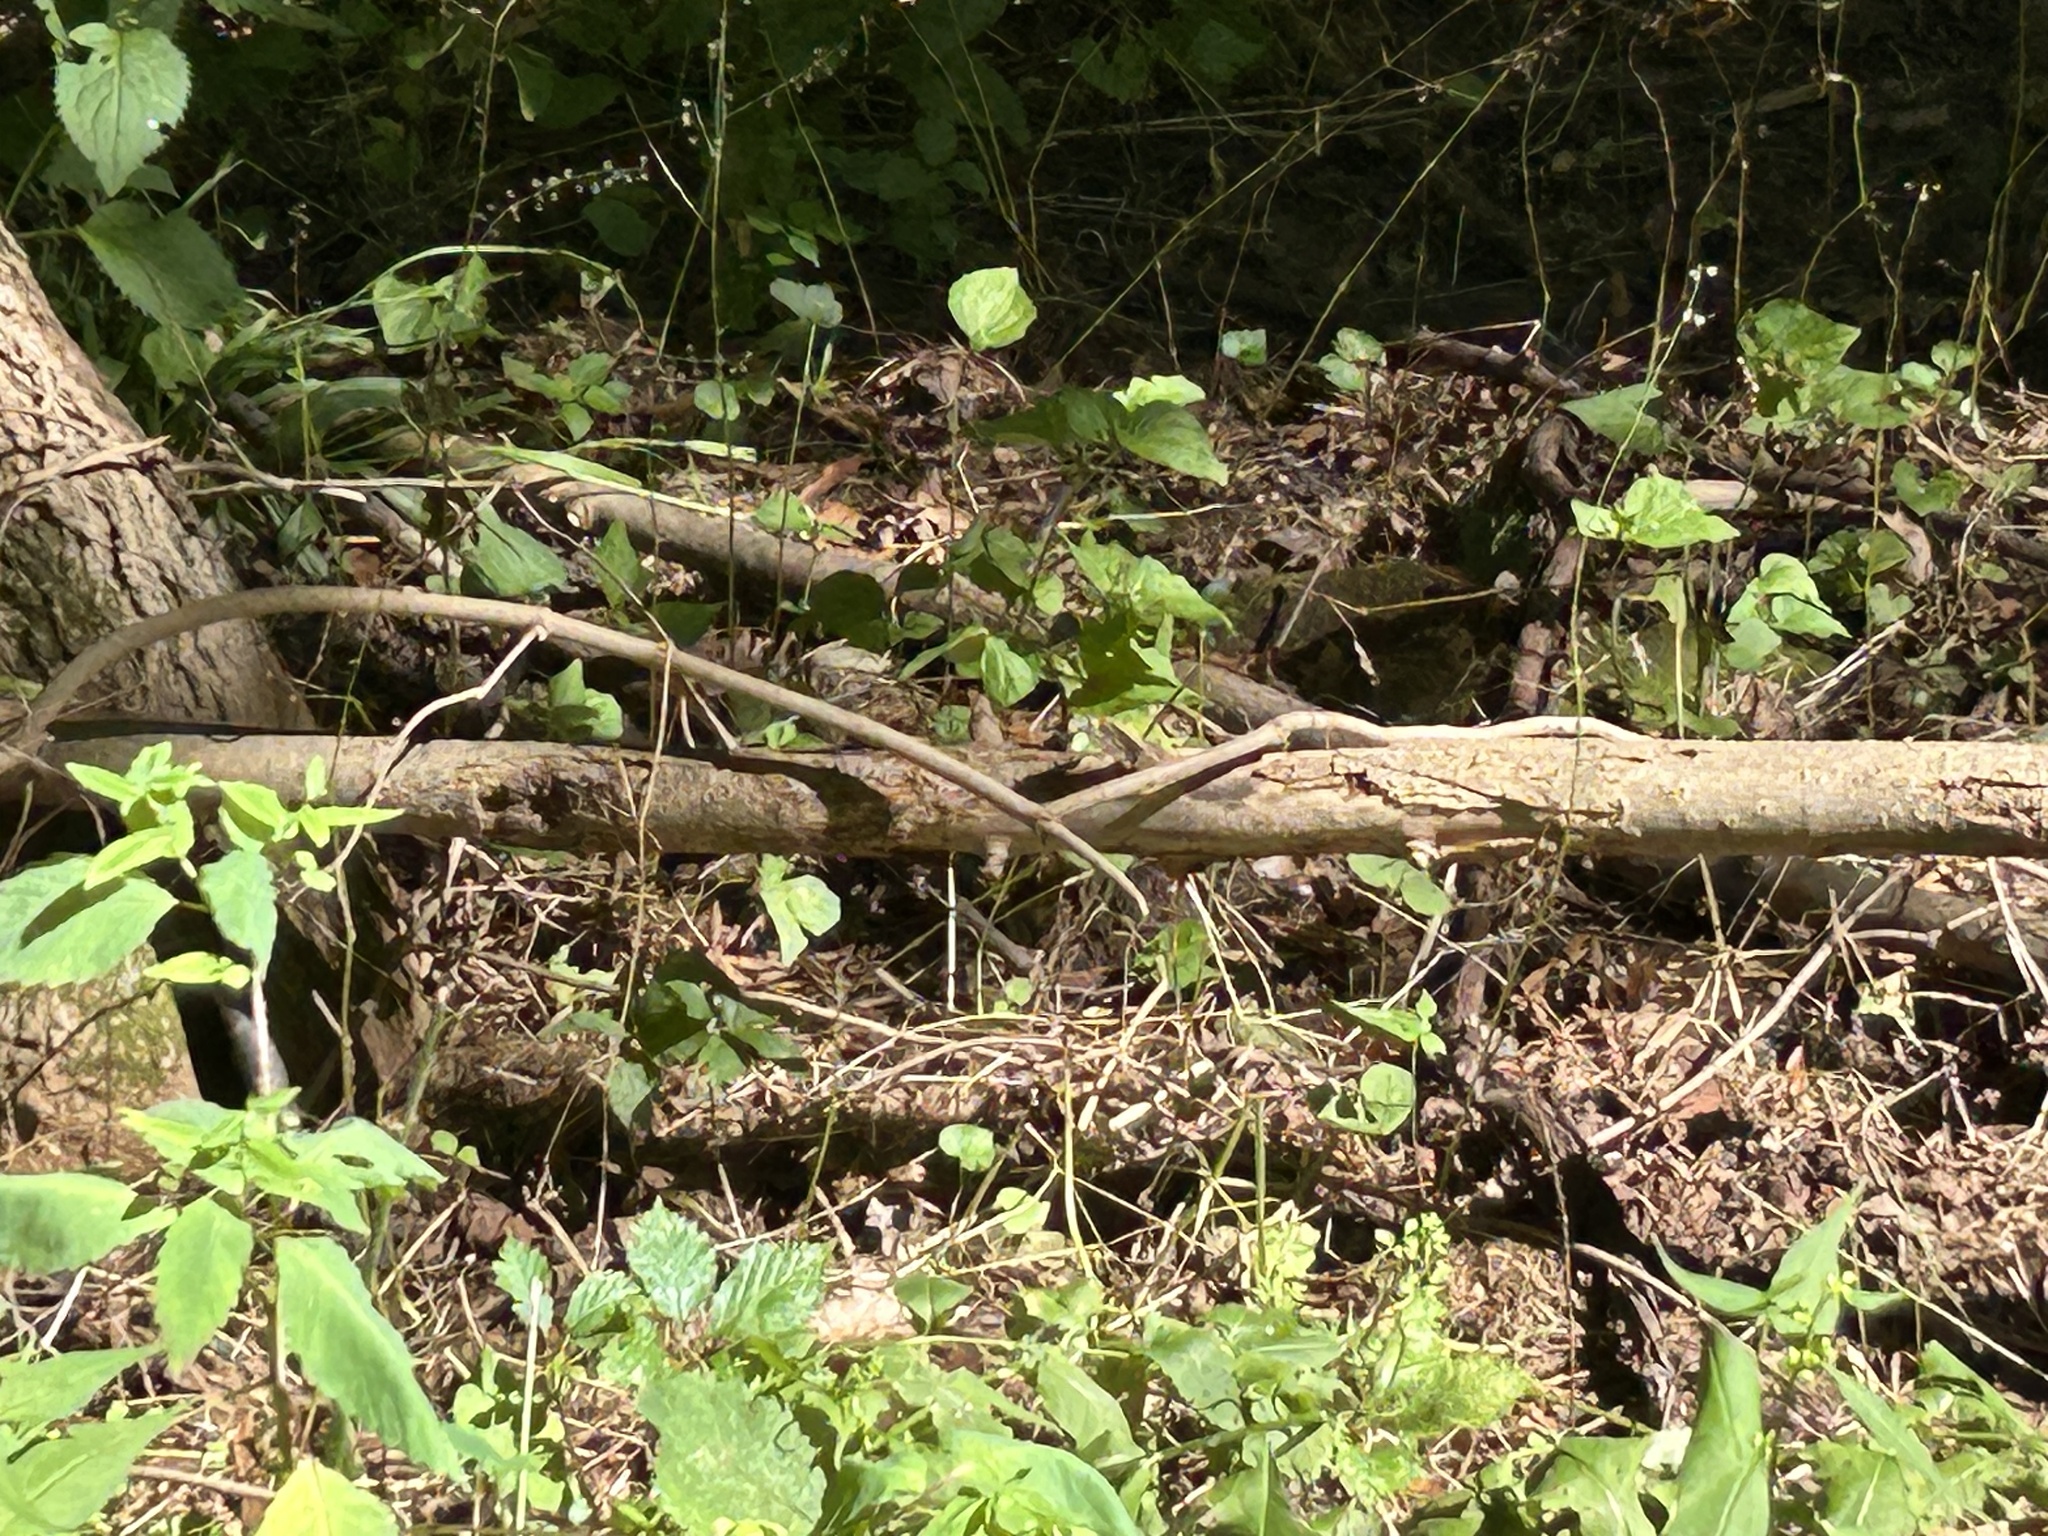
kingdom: Animalia
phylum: Arthropoda
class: Insecta
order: Lepidoptera
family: Nymphalidae
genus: Vanessa
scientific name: Vanessa atalanta
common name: Red admiral
